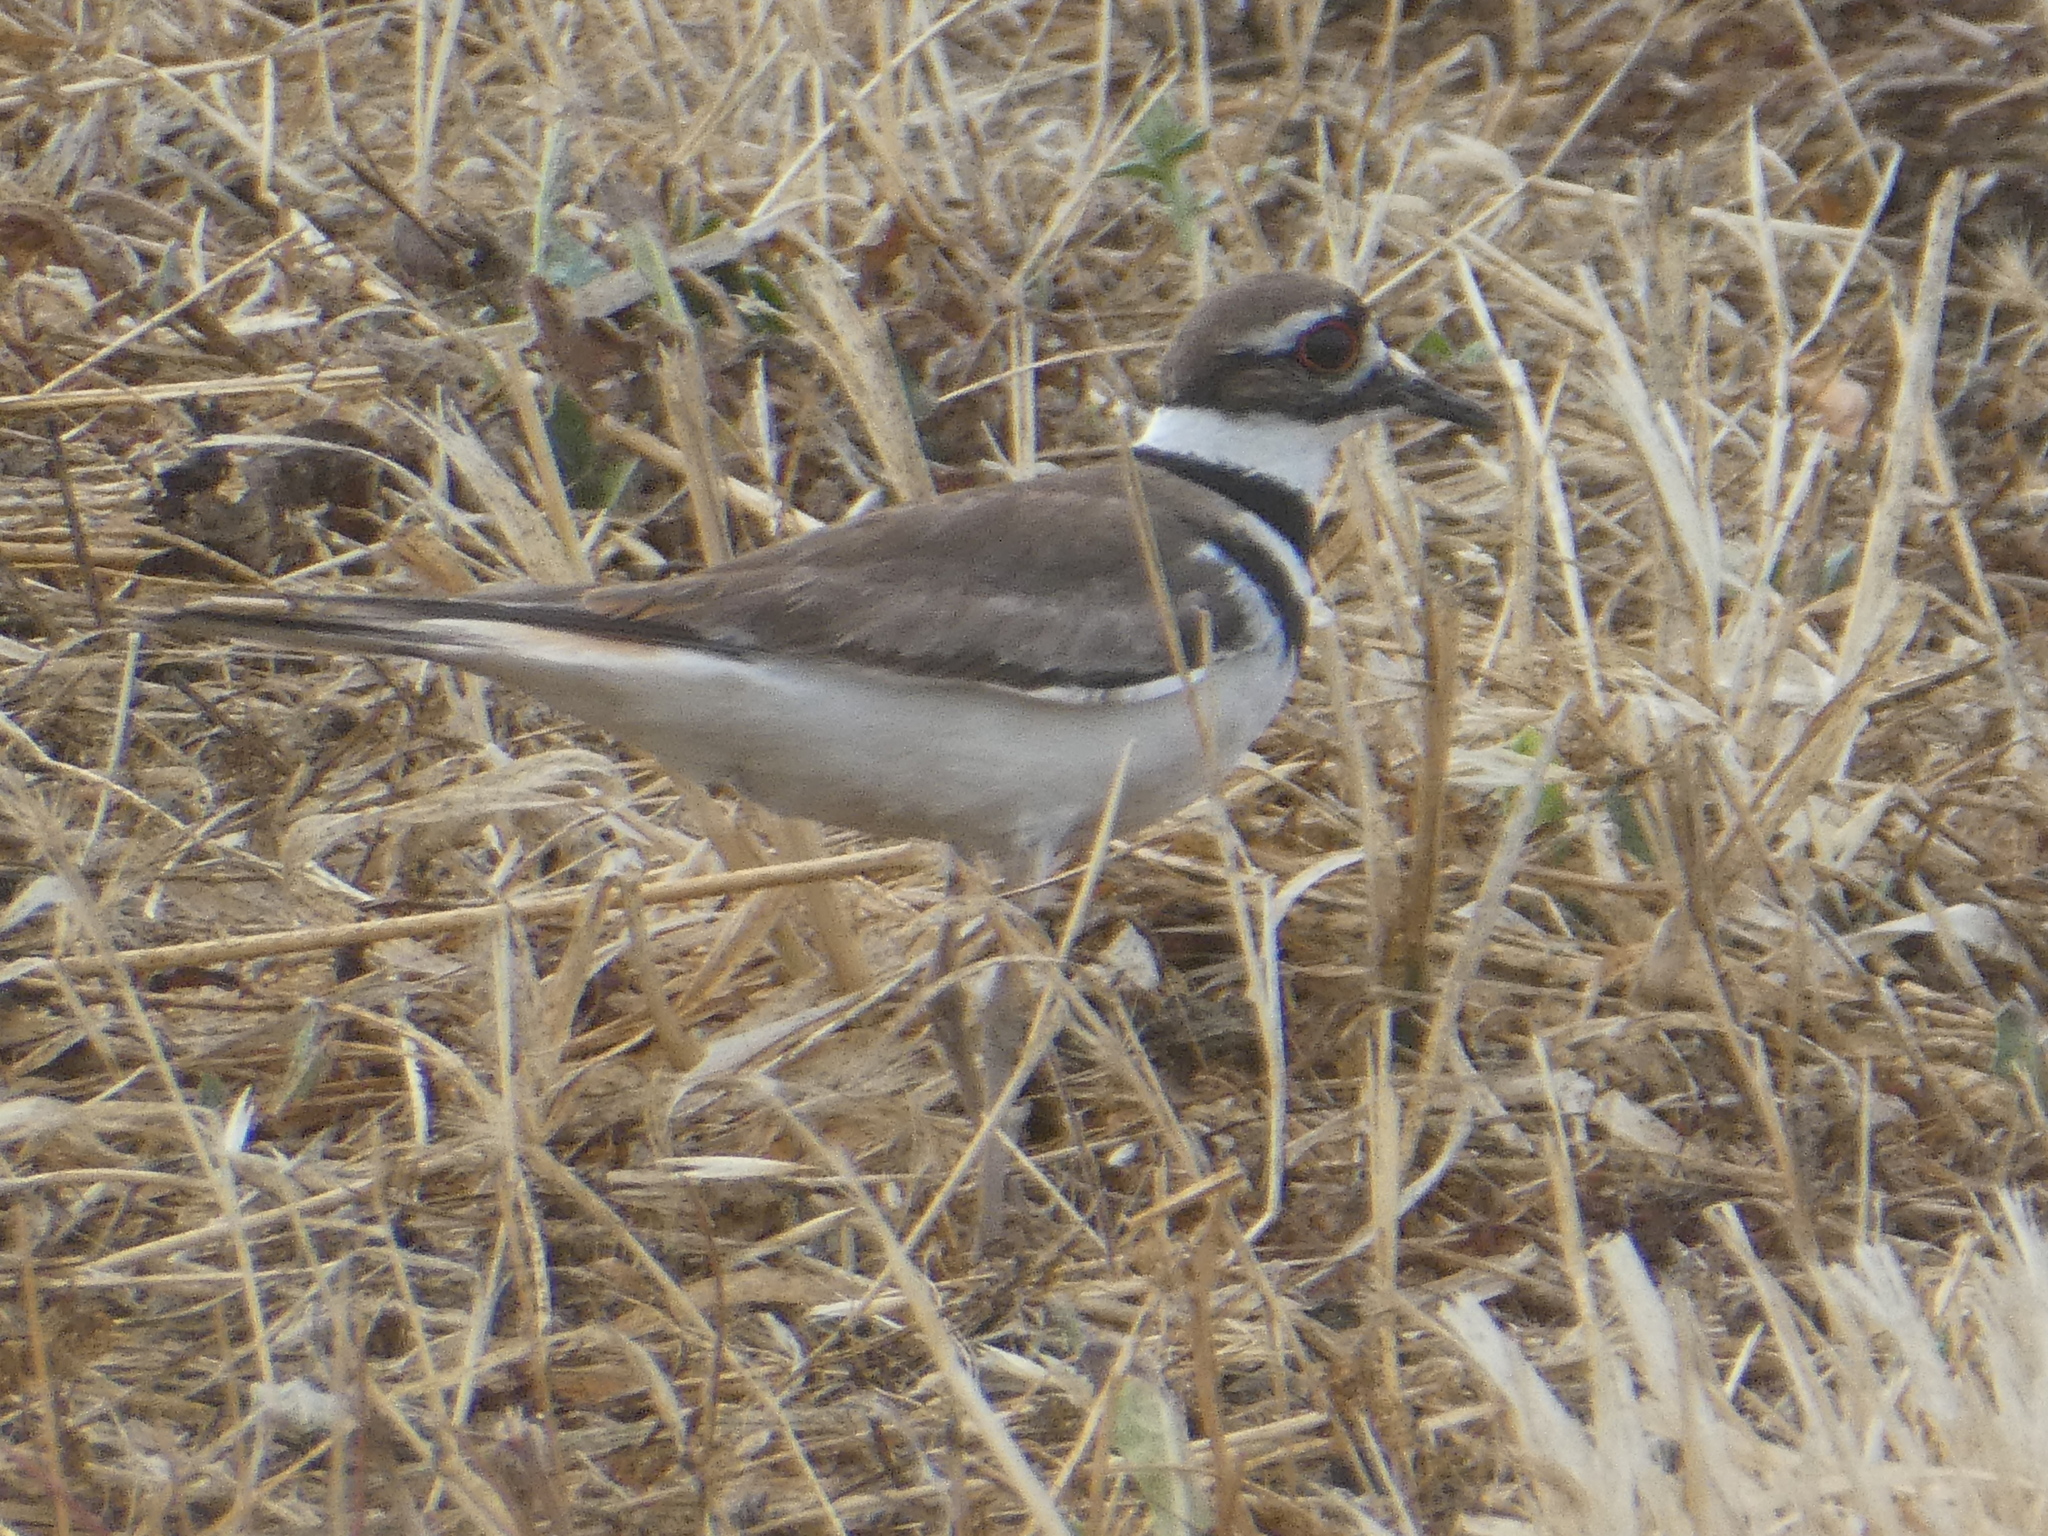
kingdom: Animalia
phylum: Chordata
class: Aves
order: Charadriiformes
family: Charadriidae
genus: Charadrius
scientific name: Charadrius vociferus
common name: Killdeer
